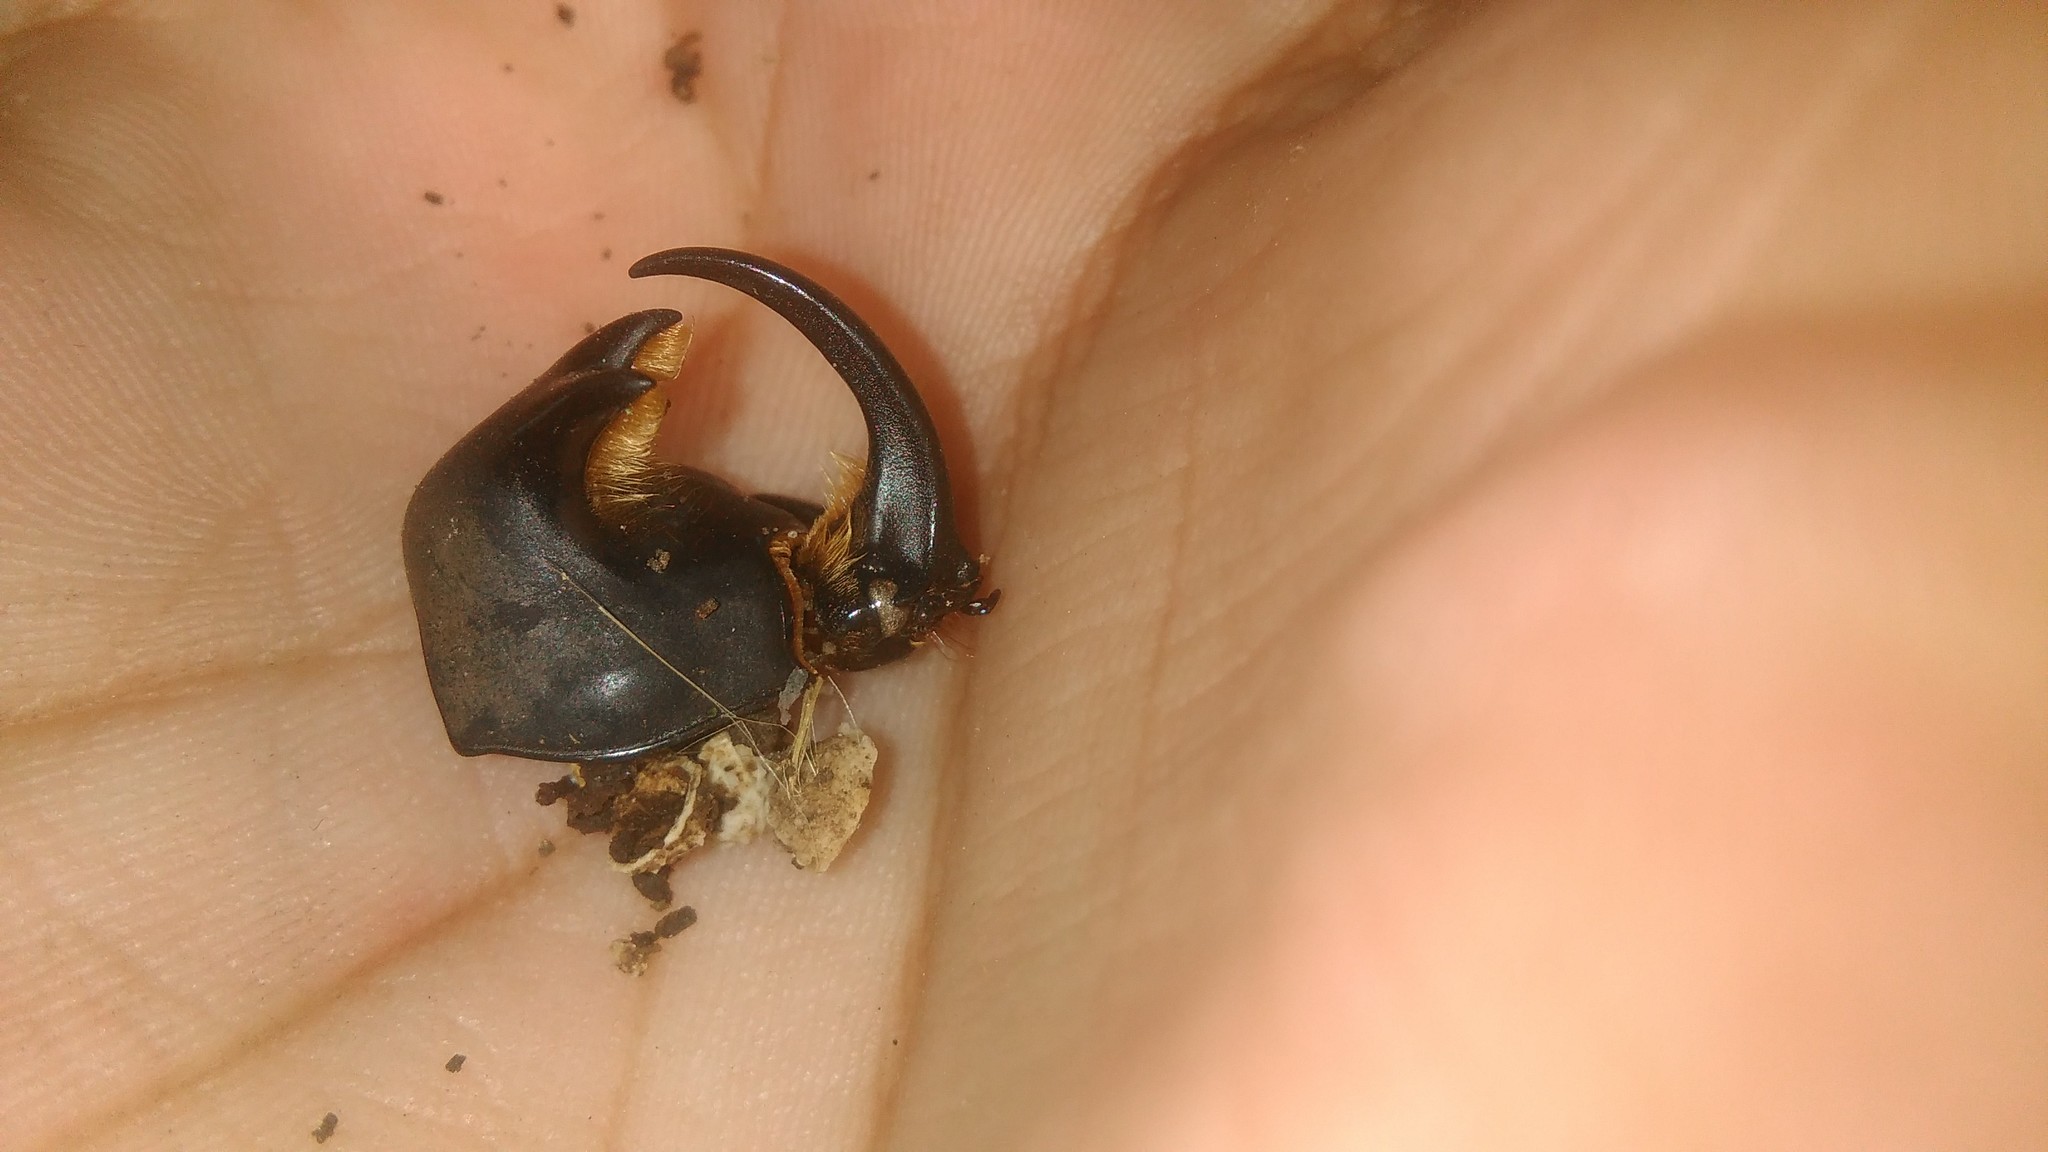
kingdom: Animalia
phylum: Arthropoda
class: Insecta
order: Coleoptera
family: Scarabaeidae
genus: Diloboderus
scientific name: Diloboderus abderus
